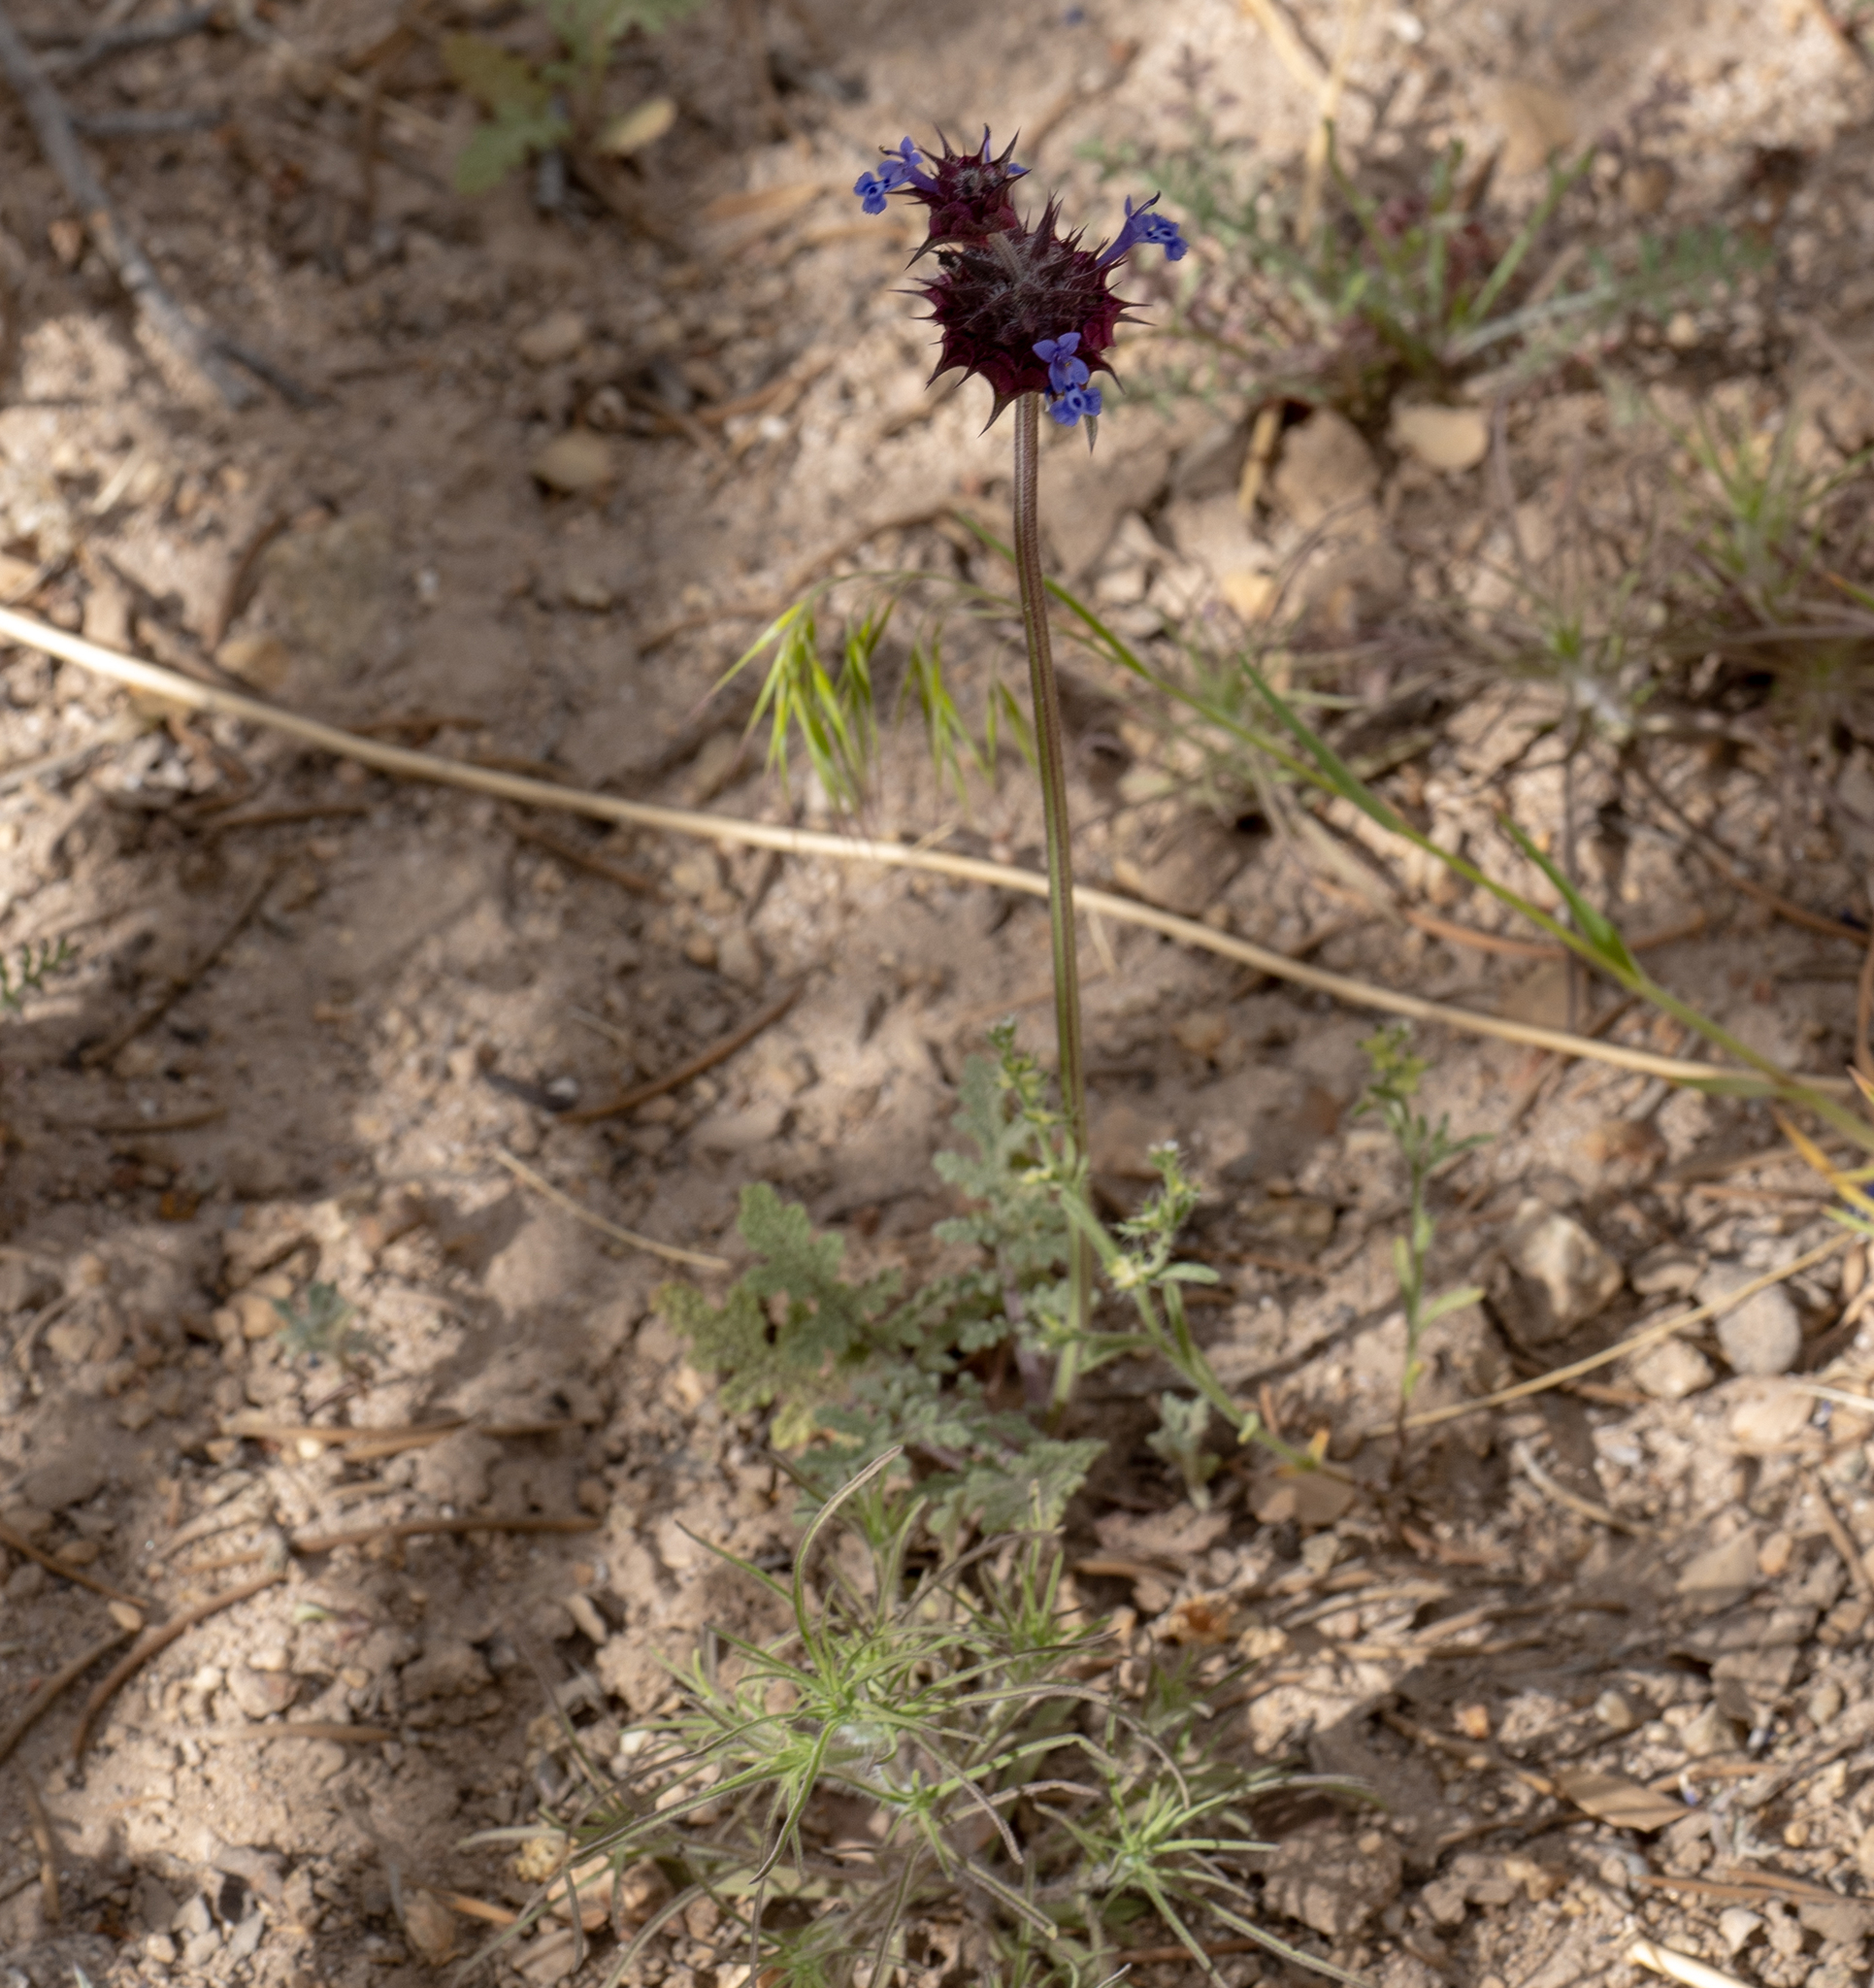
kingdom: Plantae
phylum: Tracheophyta
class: Magnoliopsida
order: Lamiales
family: Lamiaceae
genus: Salvia
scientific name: Salvia columbariae
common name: Chia
